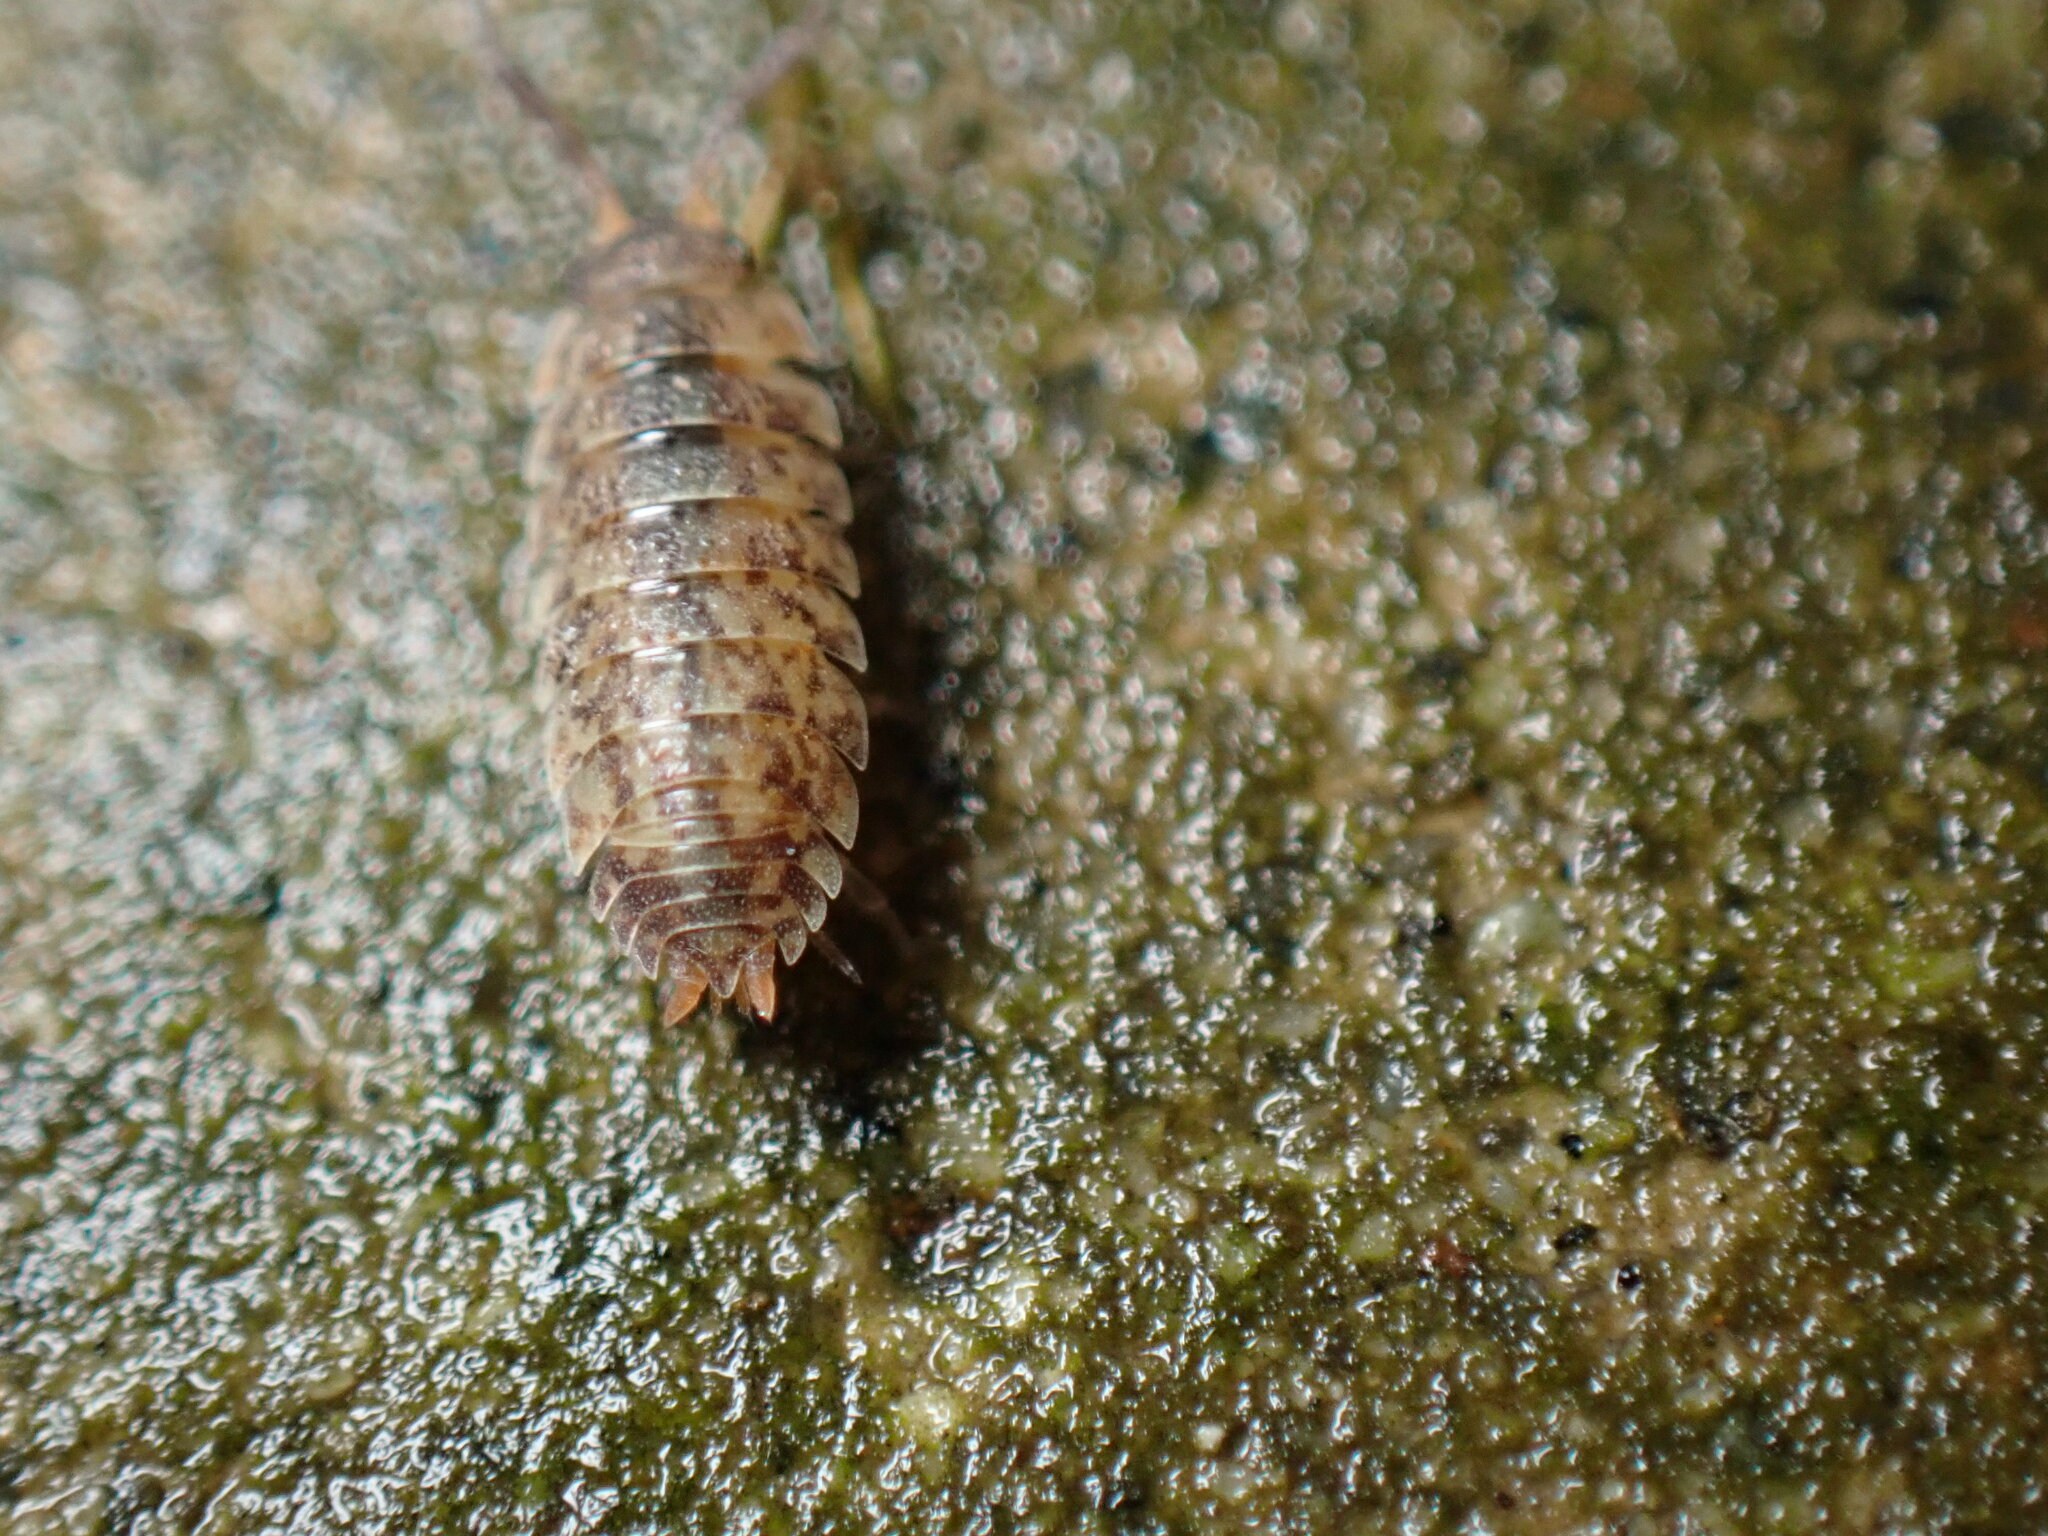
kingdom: Animalia
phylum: Arthropoda
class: Malacostraca
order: Isopoda
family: Porcellionidae
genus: Porcellio
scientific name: Porcellio scaber
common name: Common rough woodlouse
